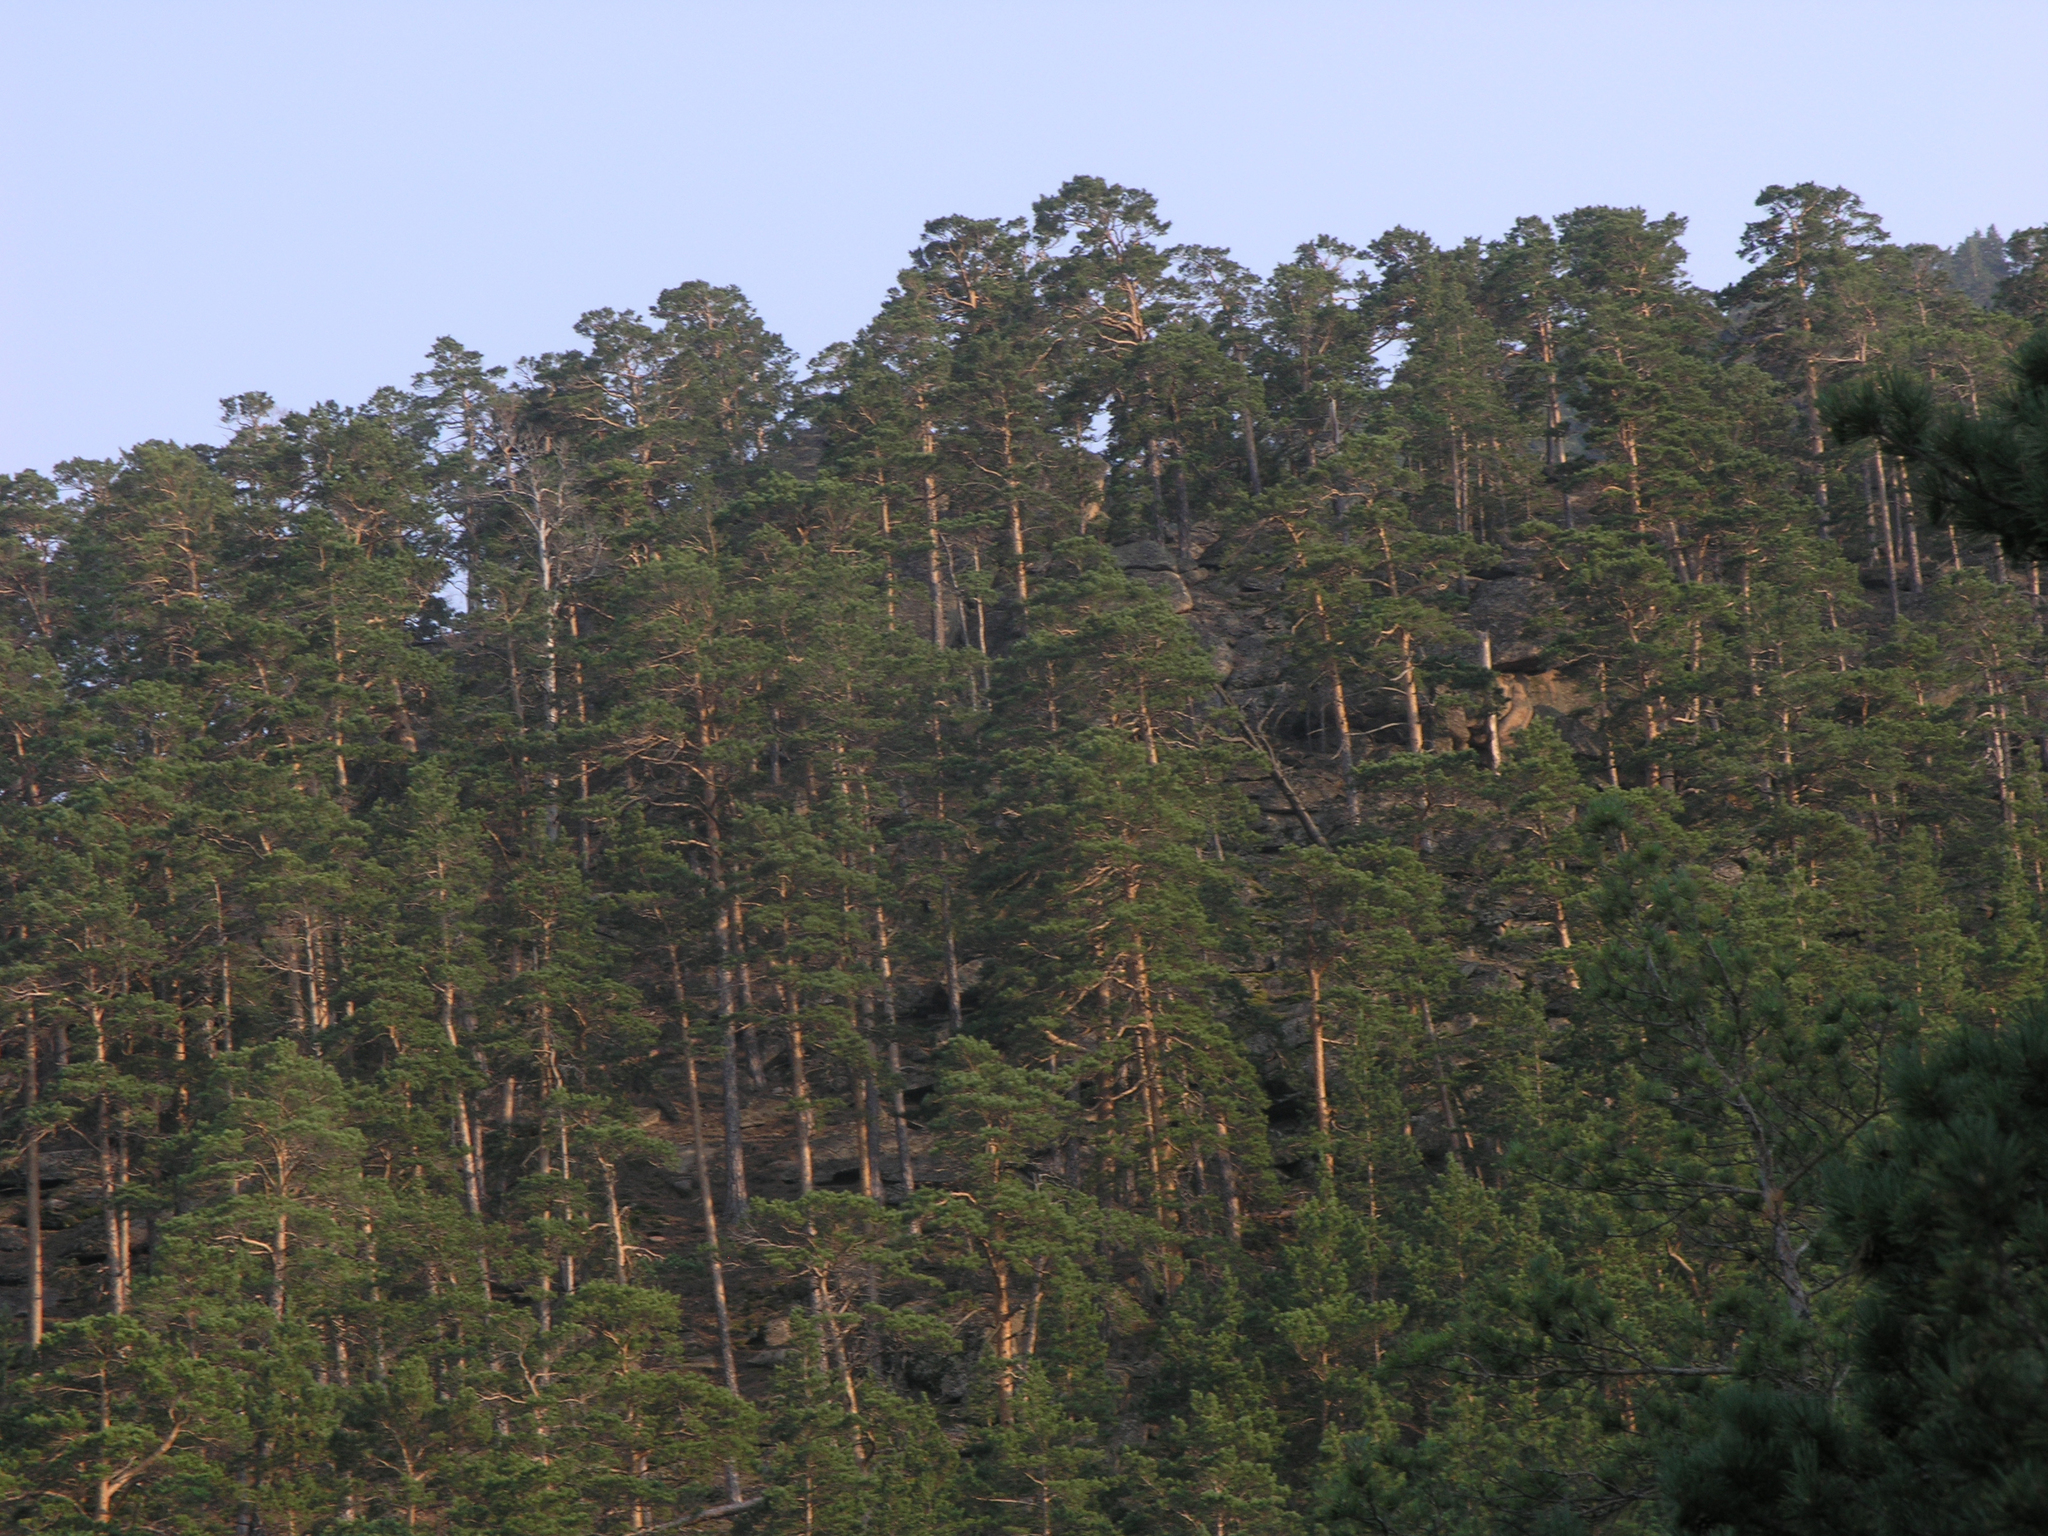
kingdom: Plantae
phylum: Tracheophyta
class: Pinopsida
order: Pinales
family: Pinaceae
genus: Pinus
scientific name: Pinus sylvestris
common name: Scots pine
